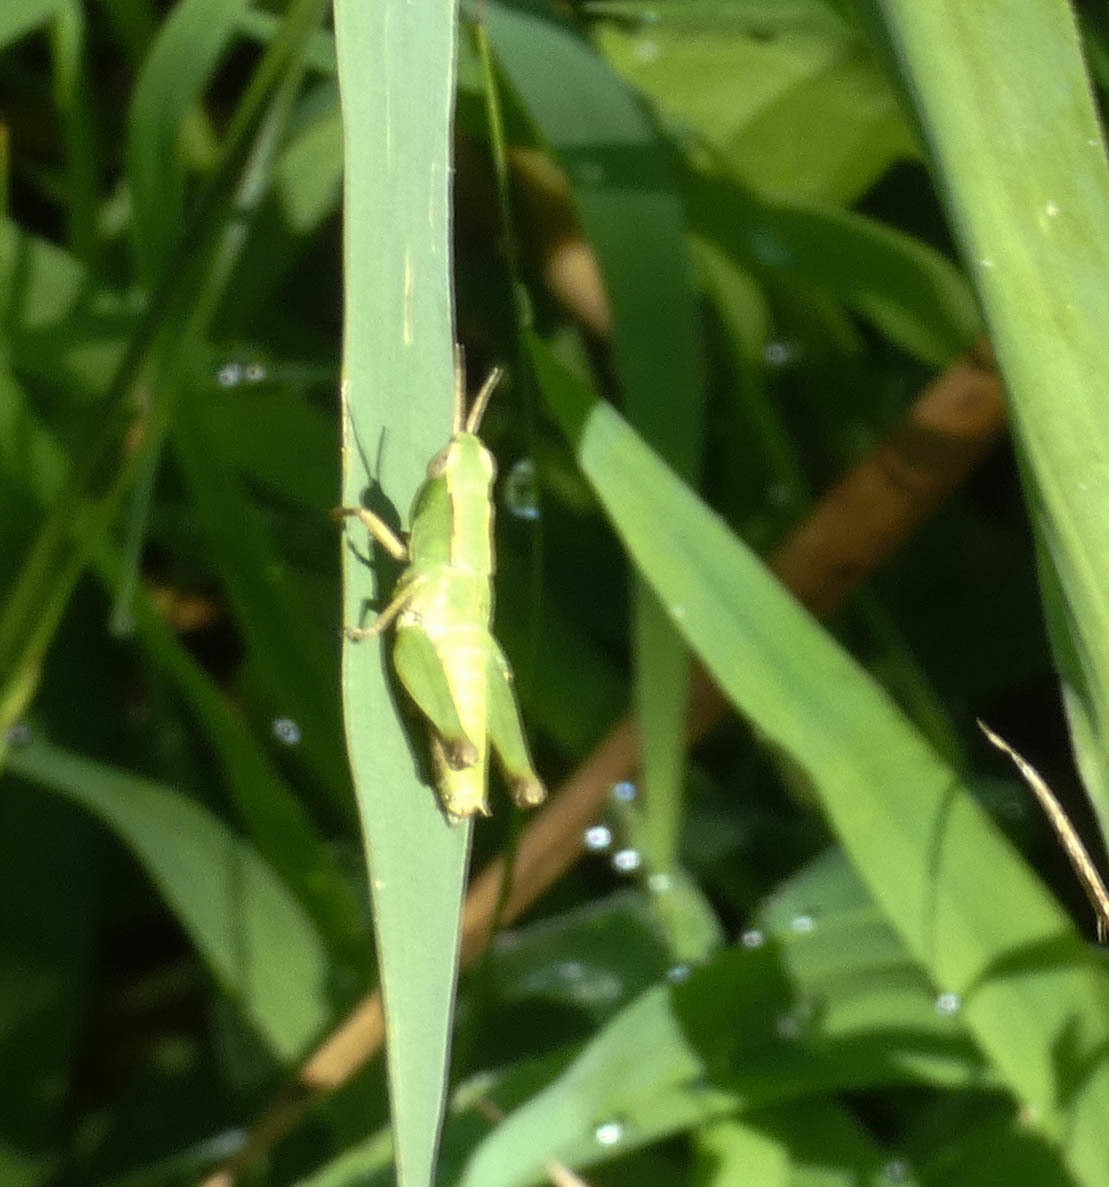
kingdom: Animalia
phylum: Arthropoda
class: Insecta
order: Orthoptera
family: Acrididae
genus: Dichromorpha
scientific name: Dichromorpha viridis
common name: Short-winged green grasshopper
